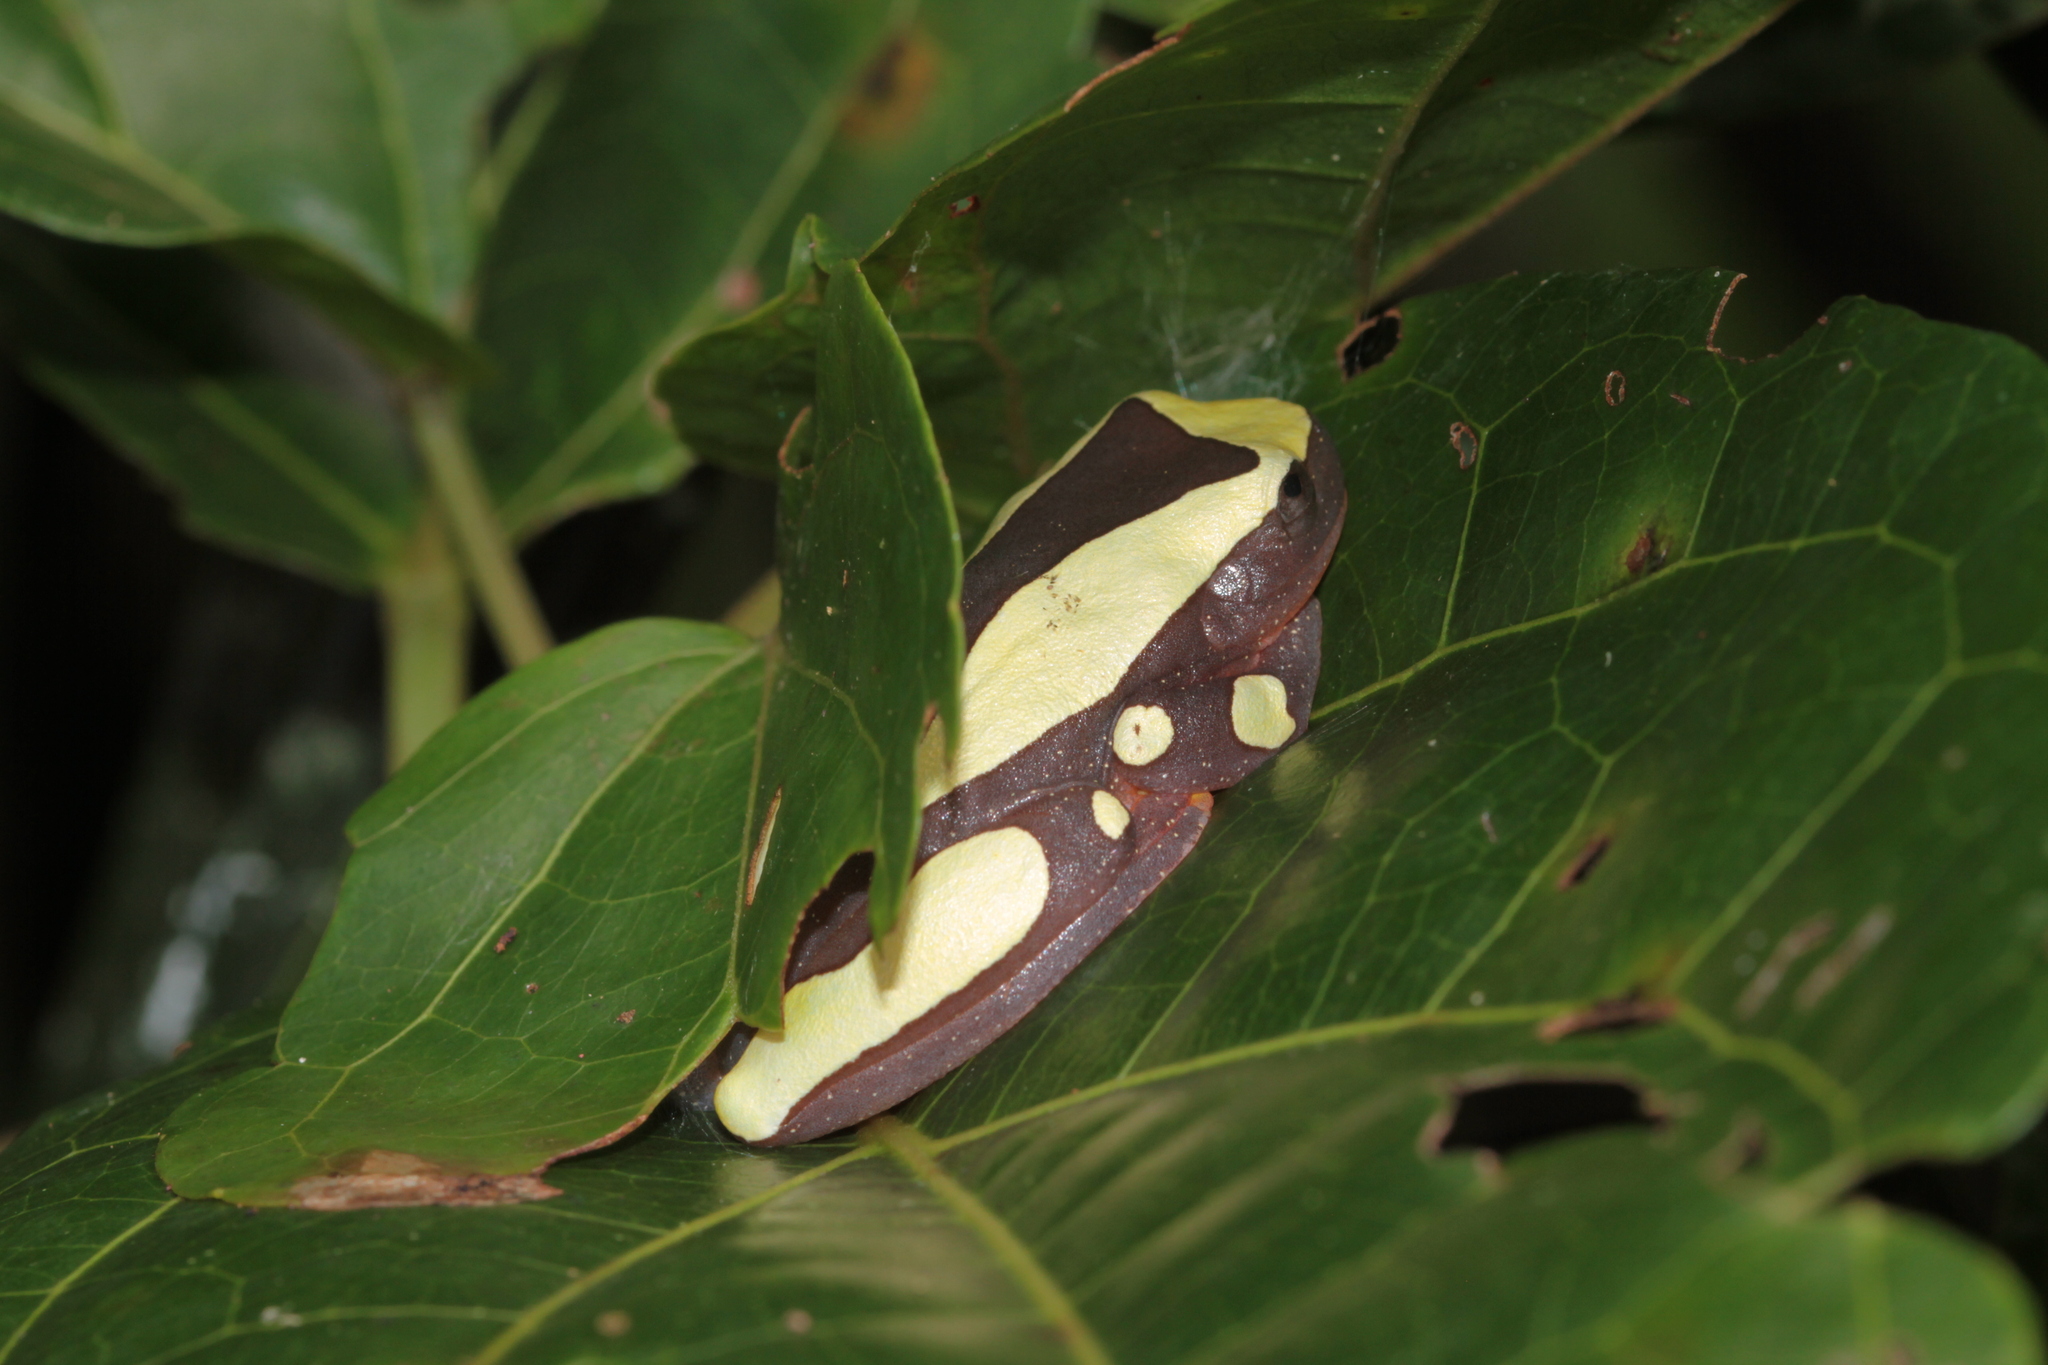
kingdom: Animalia
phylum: Chordata
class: Amphibia
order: Anura
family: Hylidae
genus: Dendropsophus
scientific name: Dendropsophus leucophyllatus
